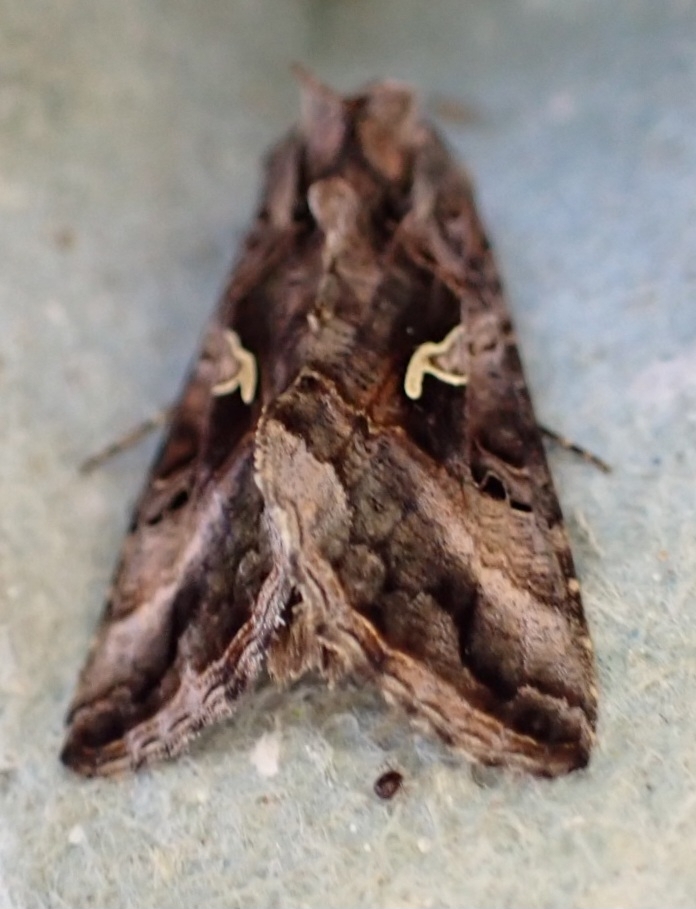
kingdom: Animalia
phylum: Arthropoda
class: Insecta
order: Lepidoptera
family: Noctuidae
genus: Autographa
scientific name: Autographa gamma
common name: Silver y
